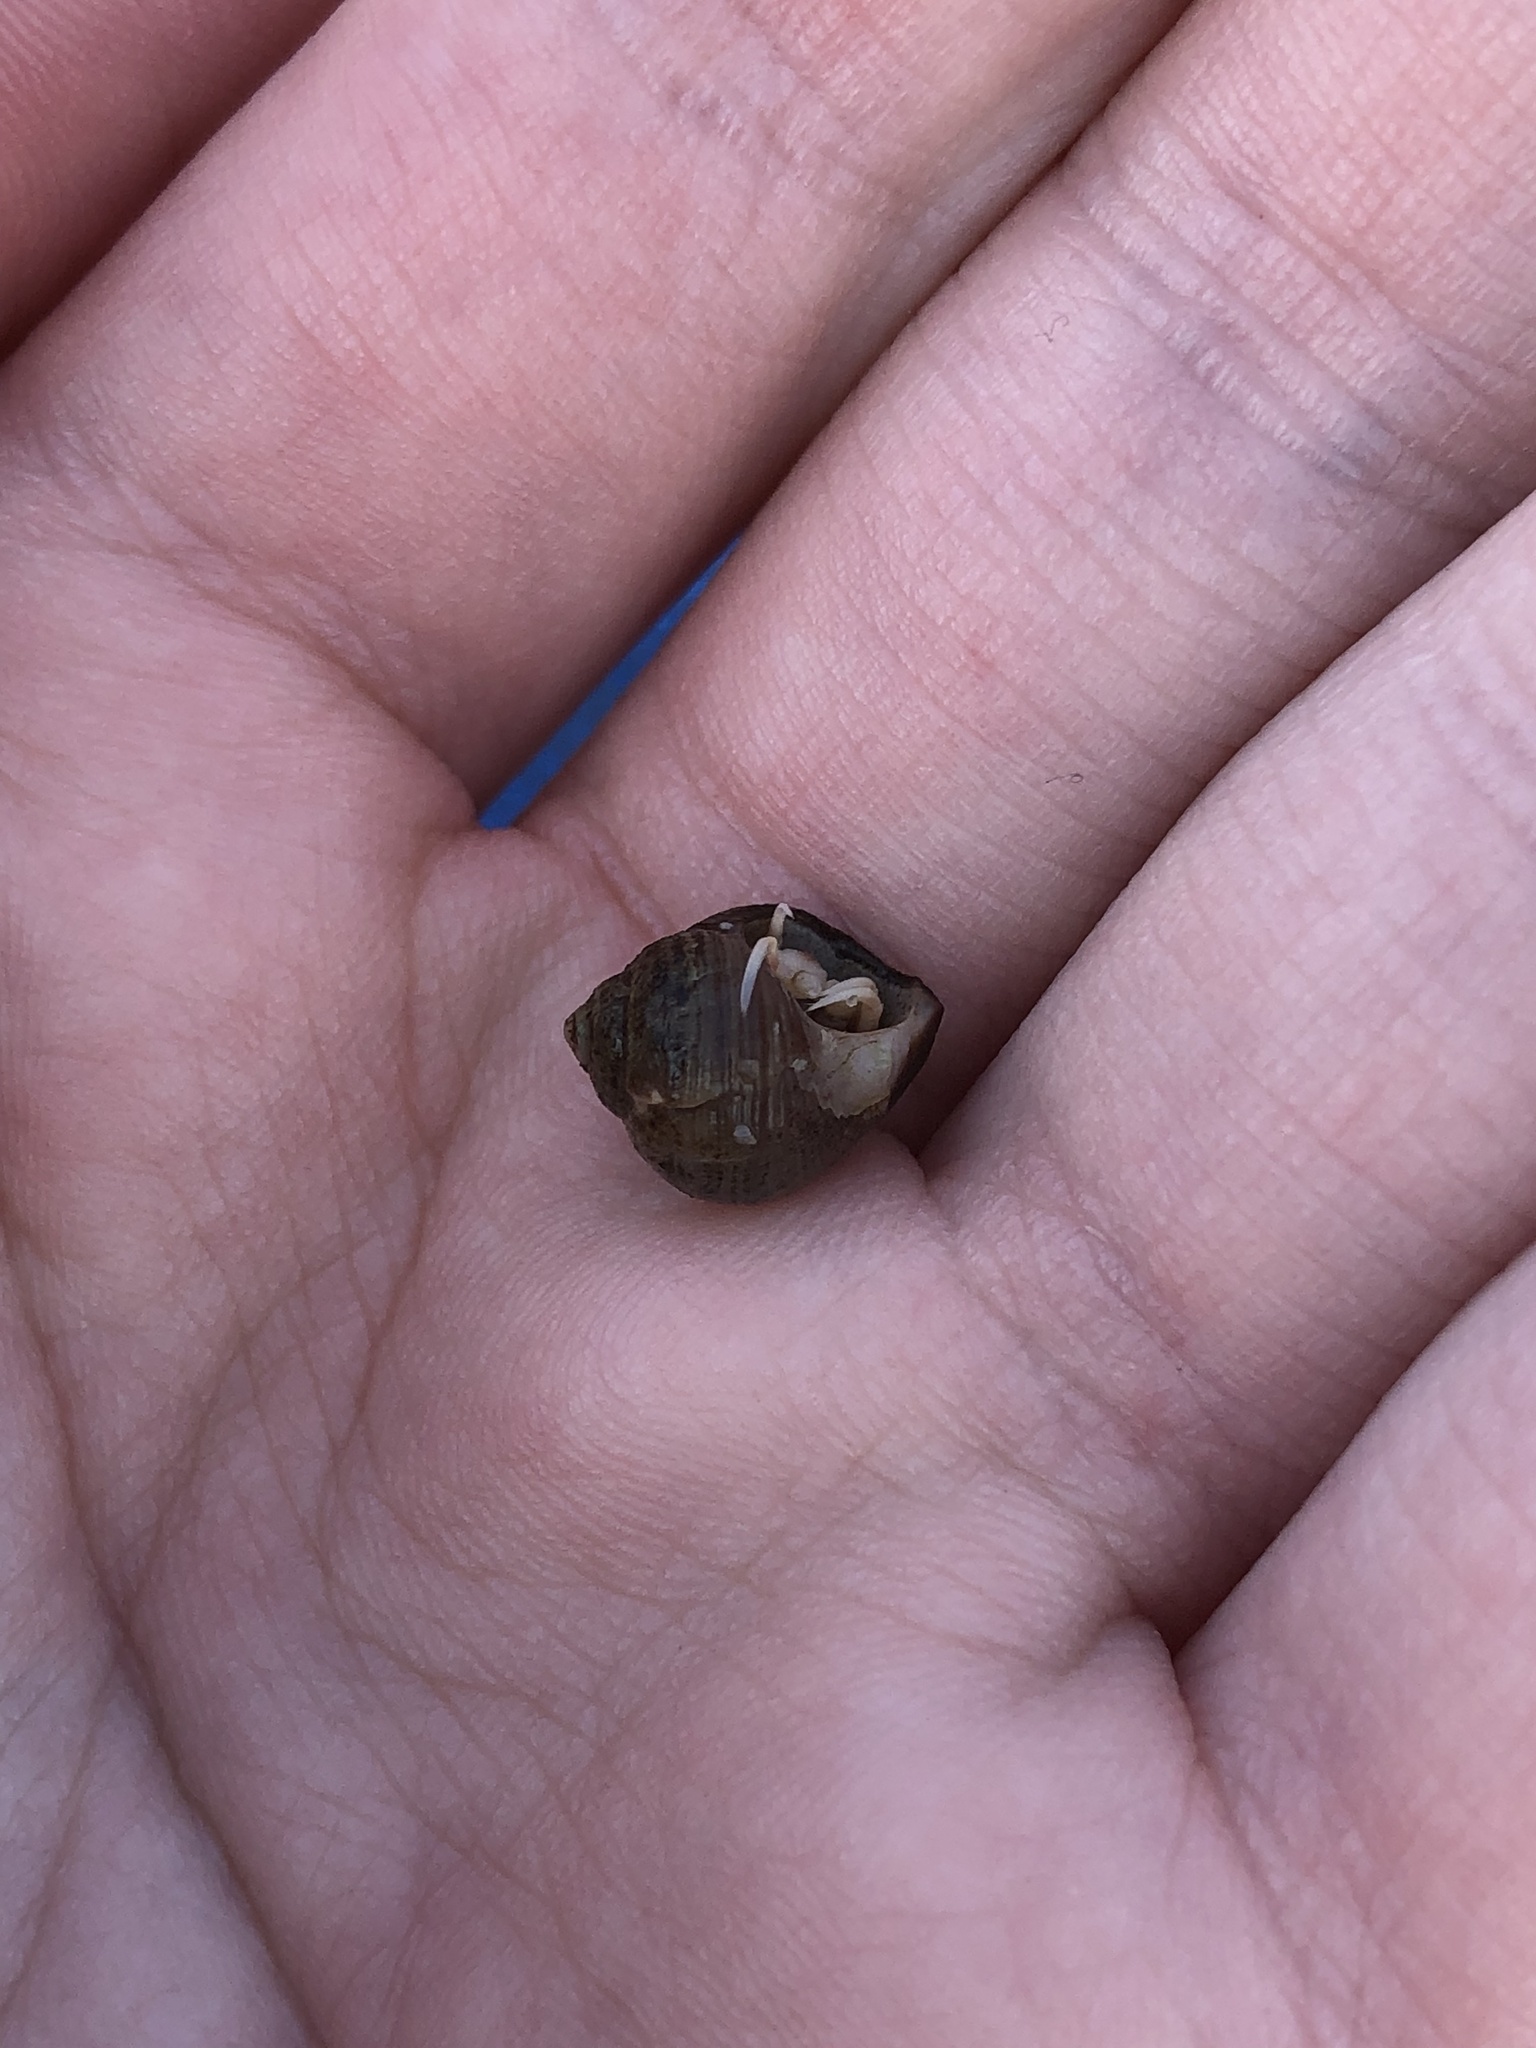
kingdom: Animalia
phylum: Arthropoda
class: Malacostraca
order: Decapoda
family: Paguridae
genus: Pagurus
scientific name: Pagurus longicarpus
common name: Long-armed hermit crab
